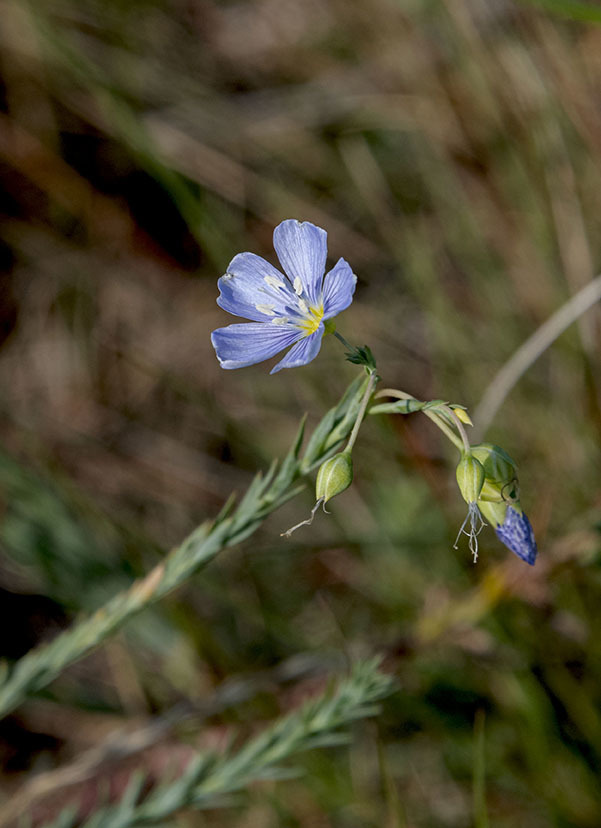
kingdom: Plantae
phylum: Tracheophyta
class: Magnoliopsida
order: Malpighiales
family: Linaceae
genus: Linum
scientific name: Linum lewisii
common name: Prairie flax
